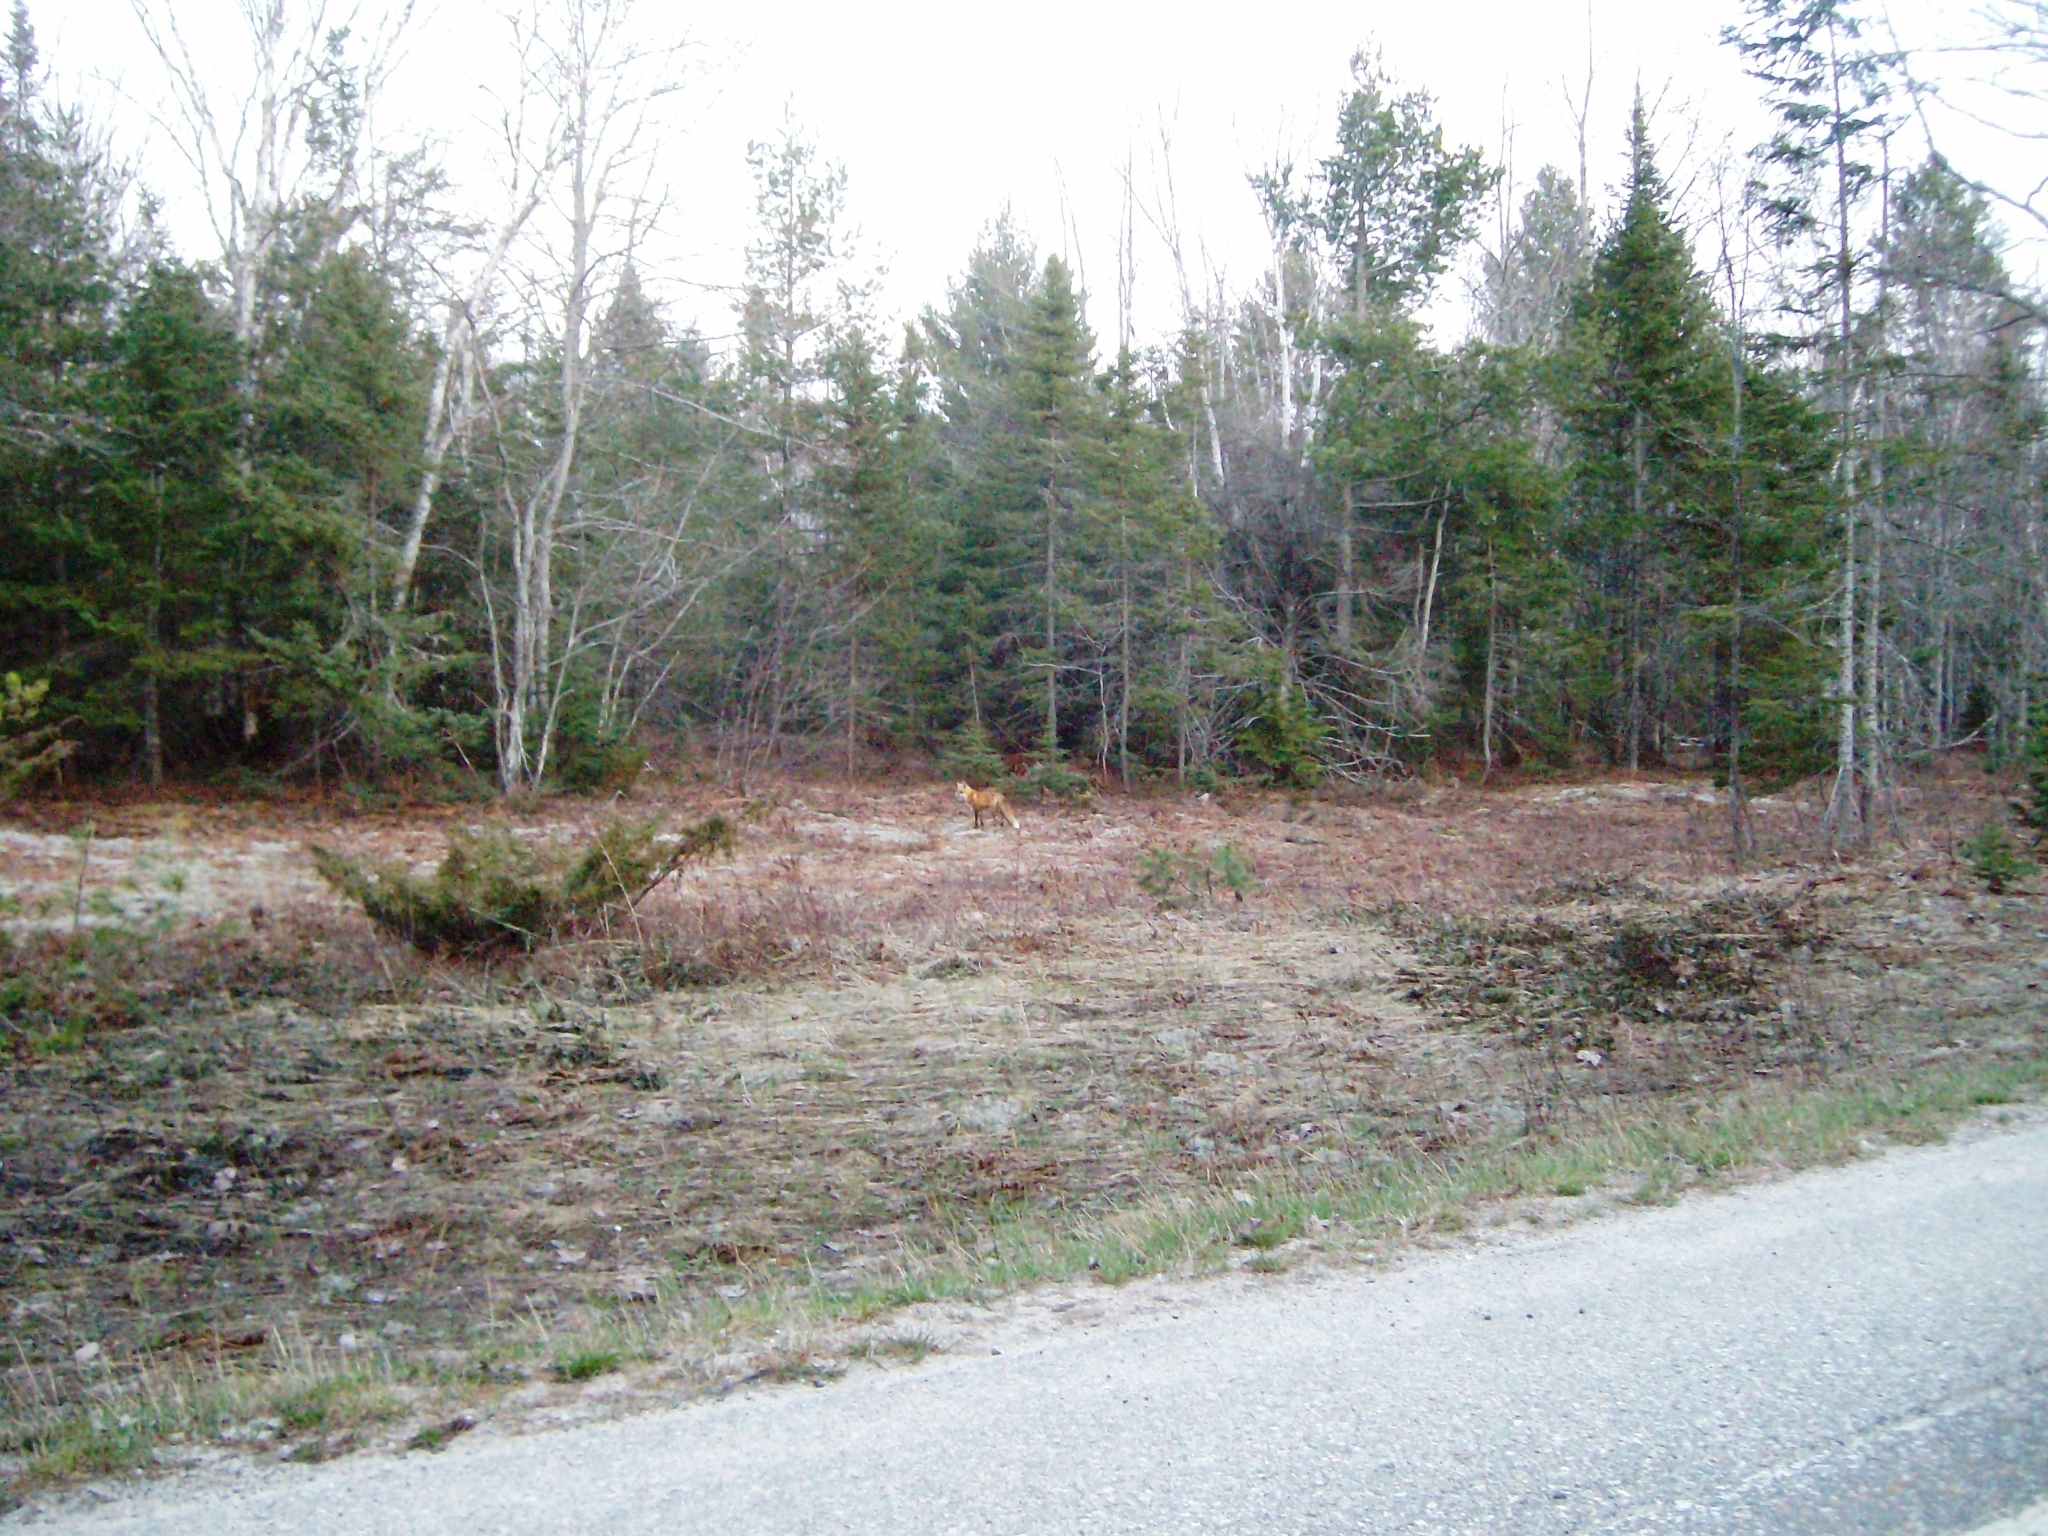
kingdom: Animalia
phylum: Chordata
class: Mammalia
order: Carnivora
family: Canidae
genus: Vulpes
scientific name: Vulpes vulpes
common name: Red fox
